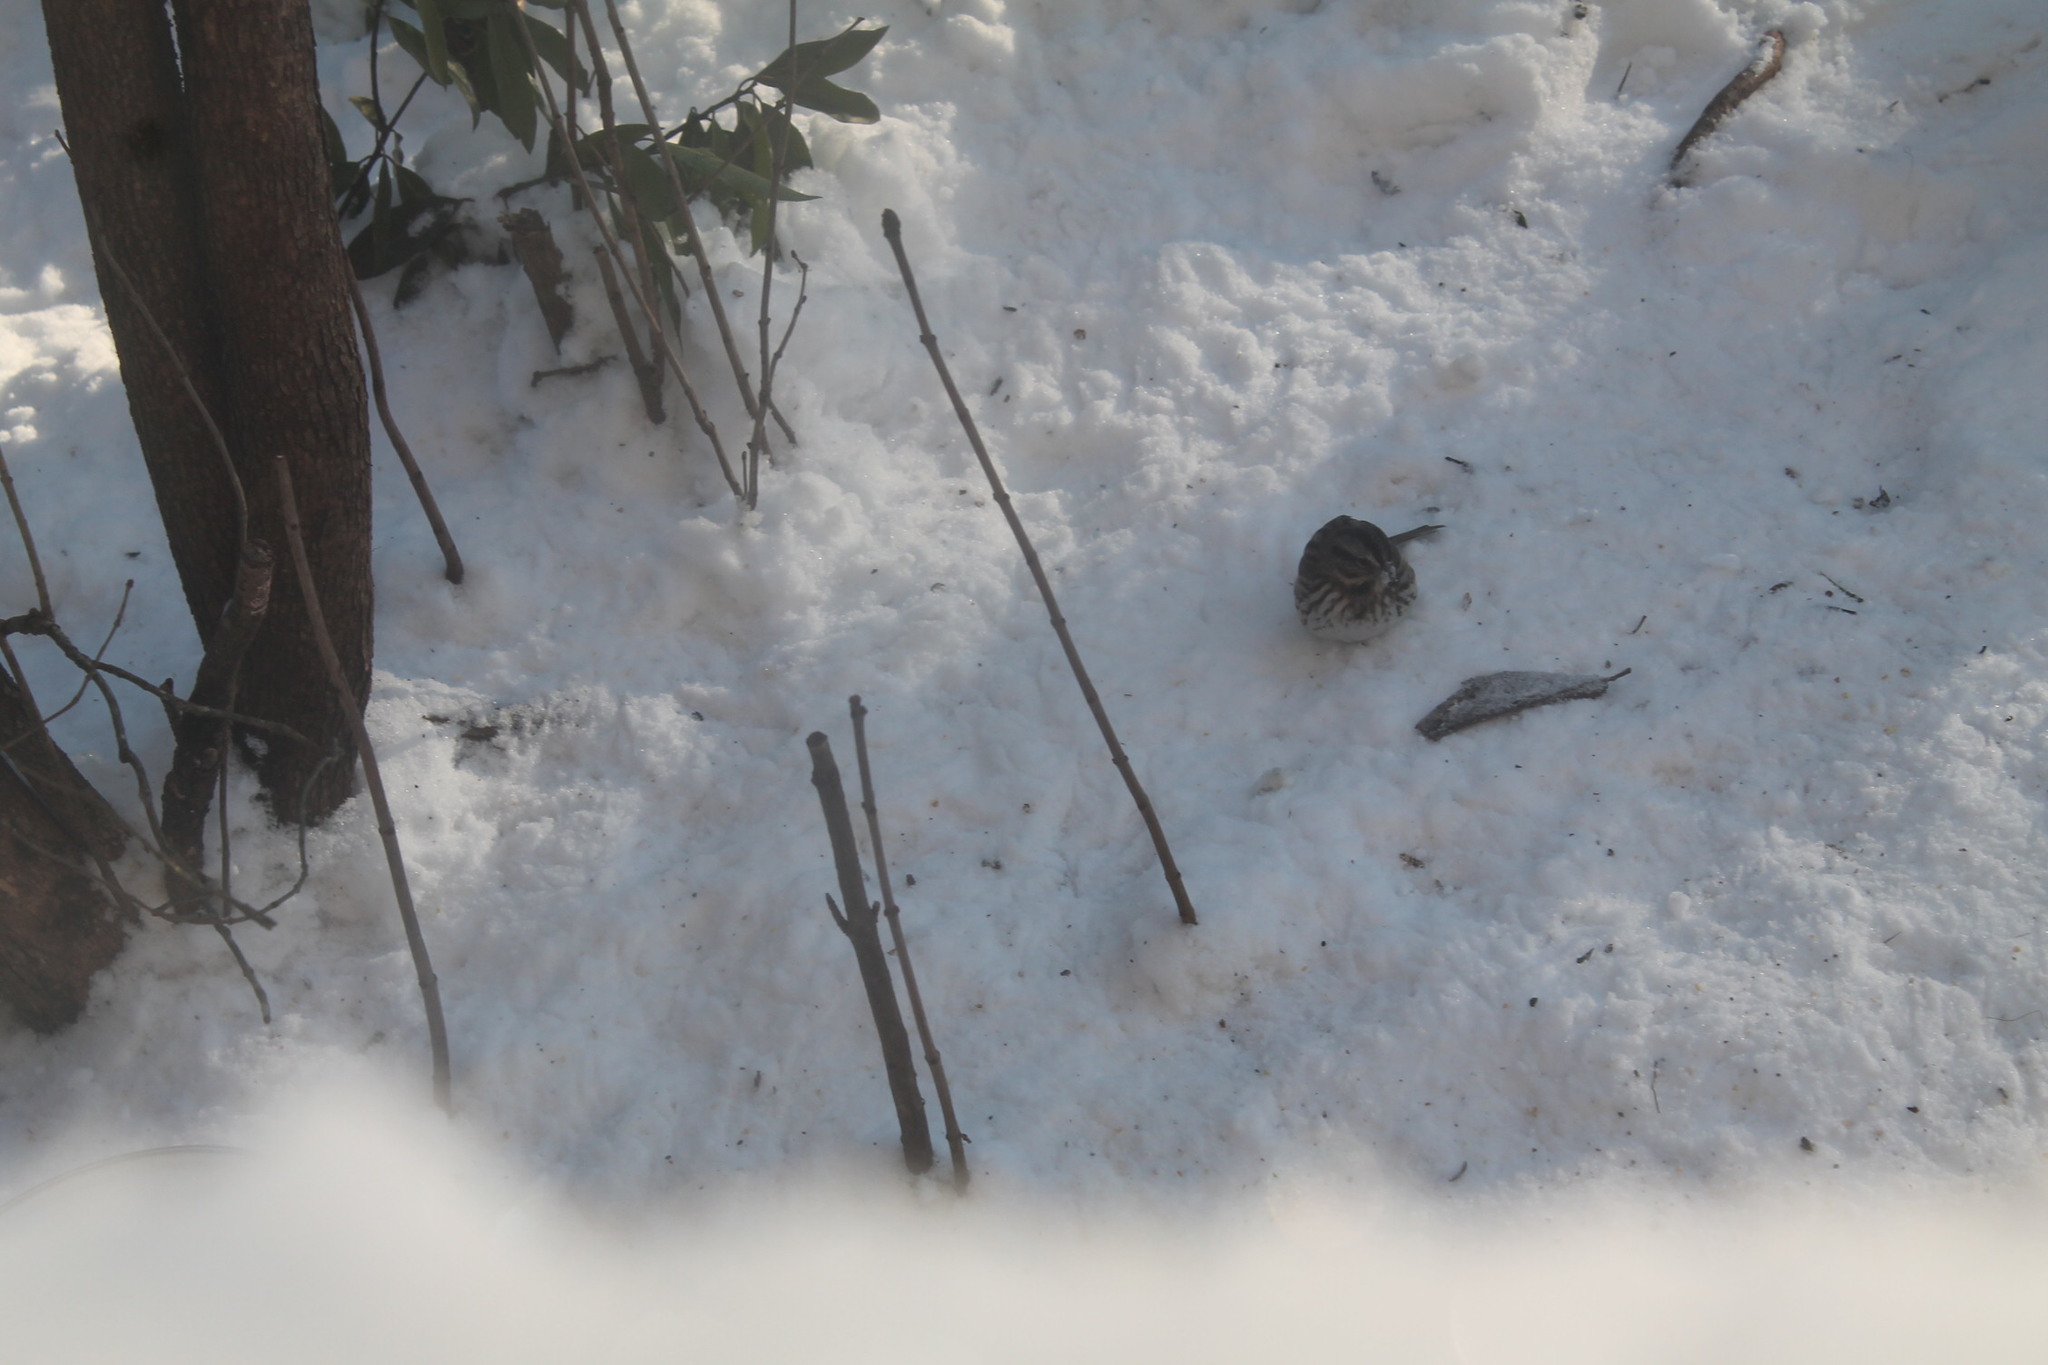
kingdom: Animalia
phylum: Chordata
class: Aves
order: Passeriformes
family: Passerellidae
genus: Melospiza
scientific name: Melospiza melodia
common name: Song sparrow
